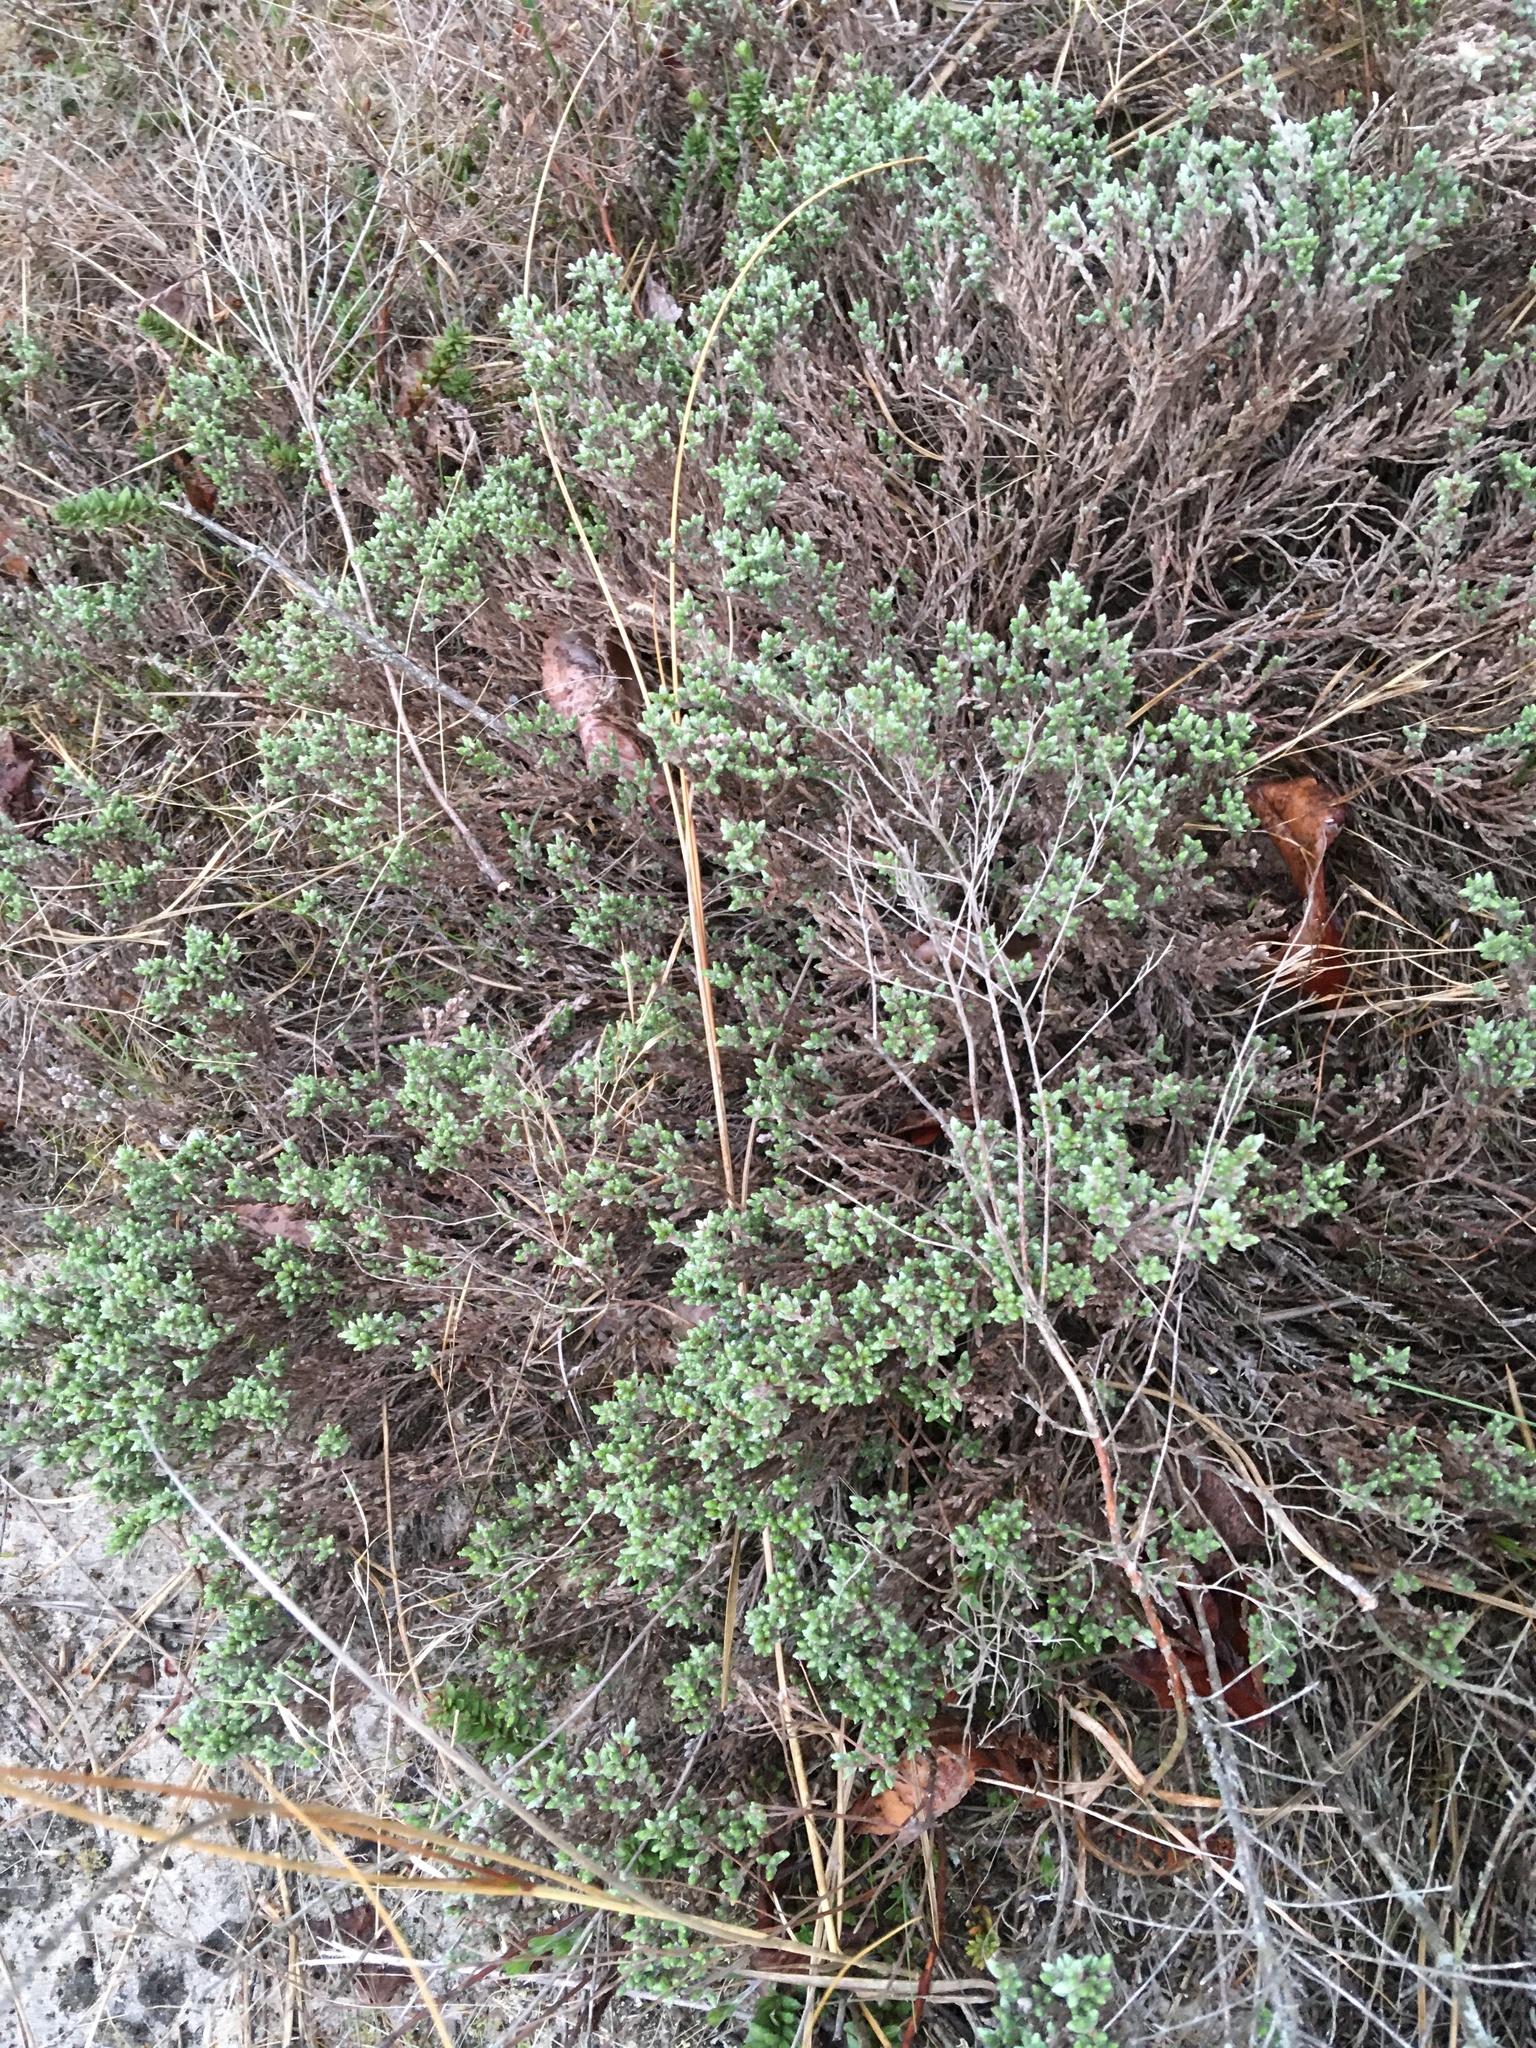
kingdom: Plantae
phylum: Tracheophyta
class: Magnoliopsida
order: Malvales
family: Cistaceae
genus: Hudsonia
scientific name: Hudsonia tomentosa
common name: Beach-heath
